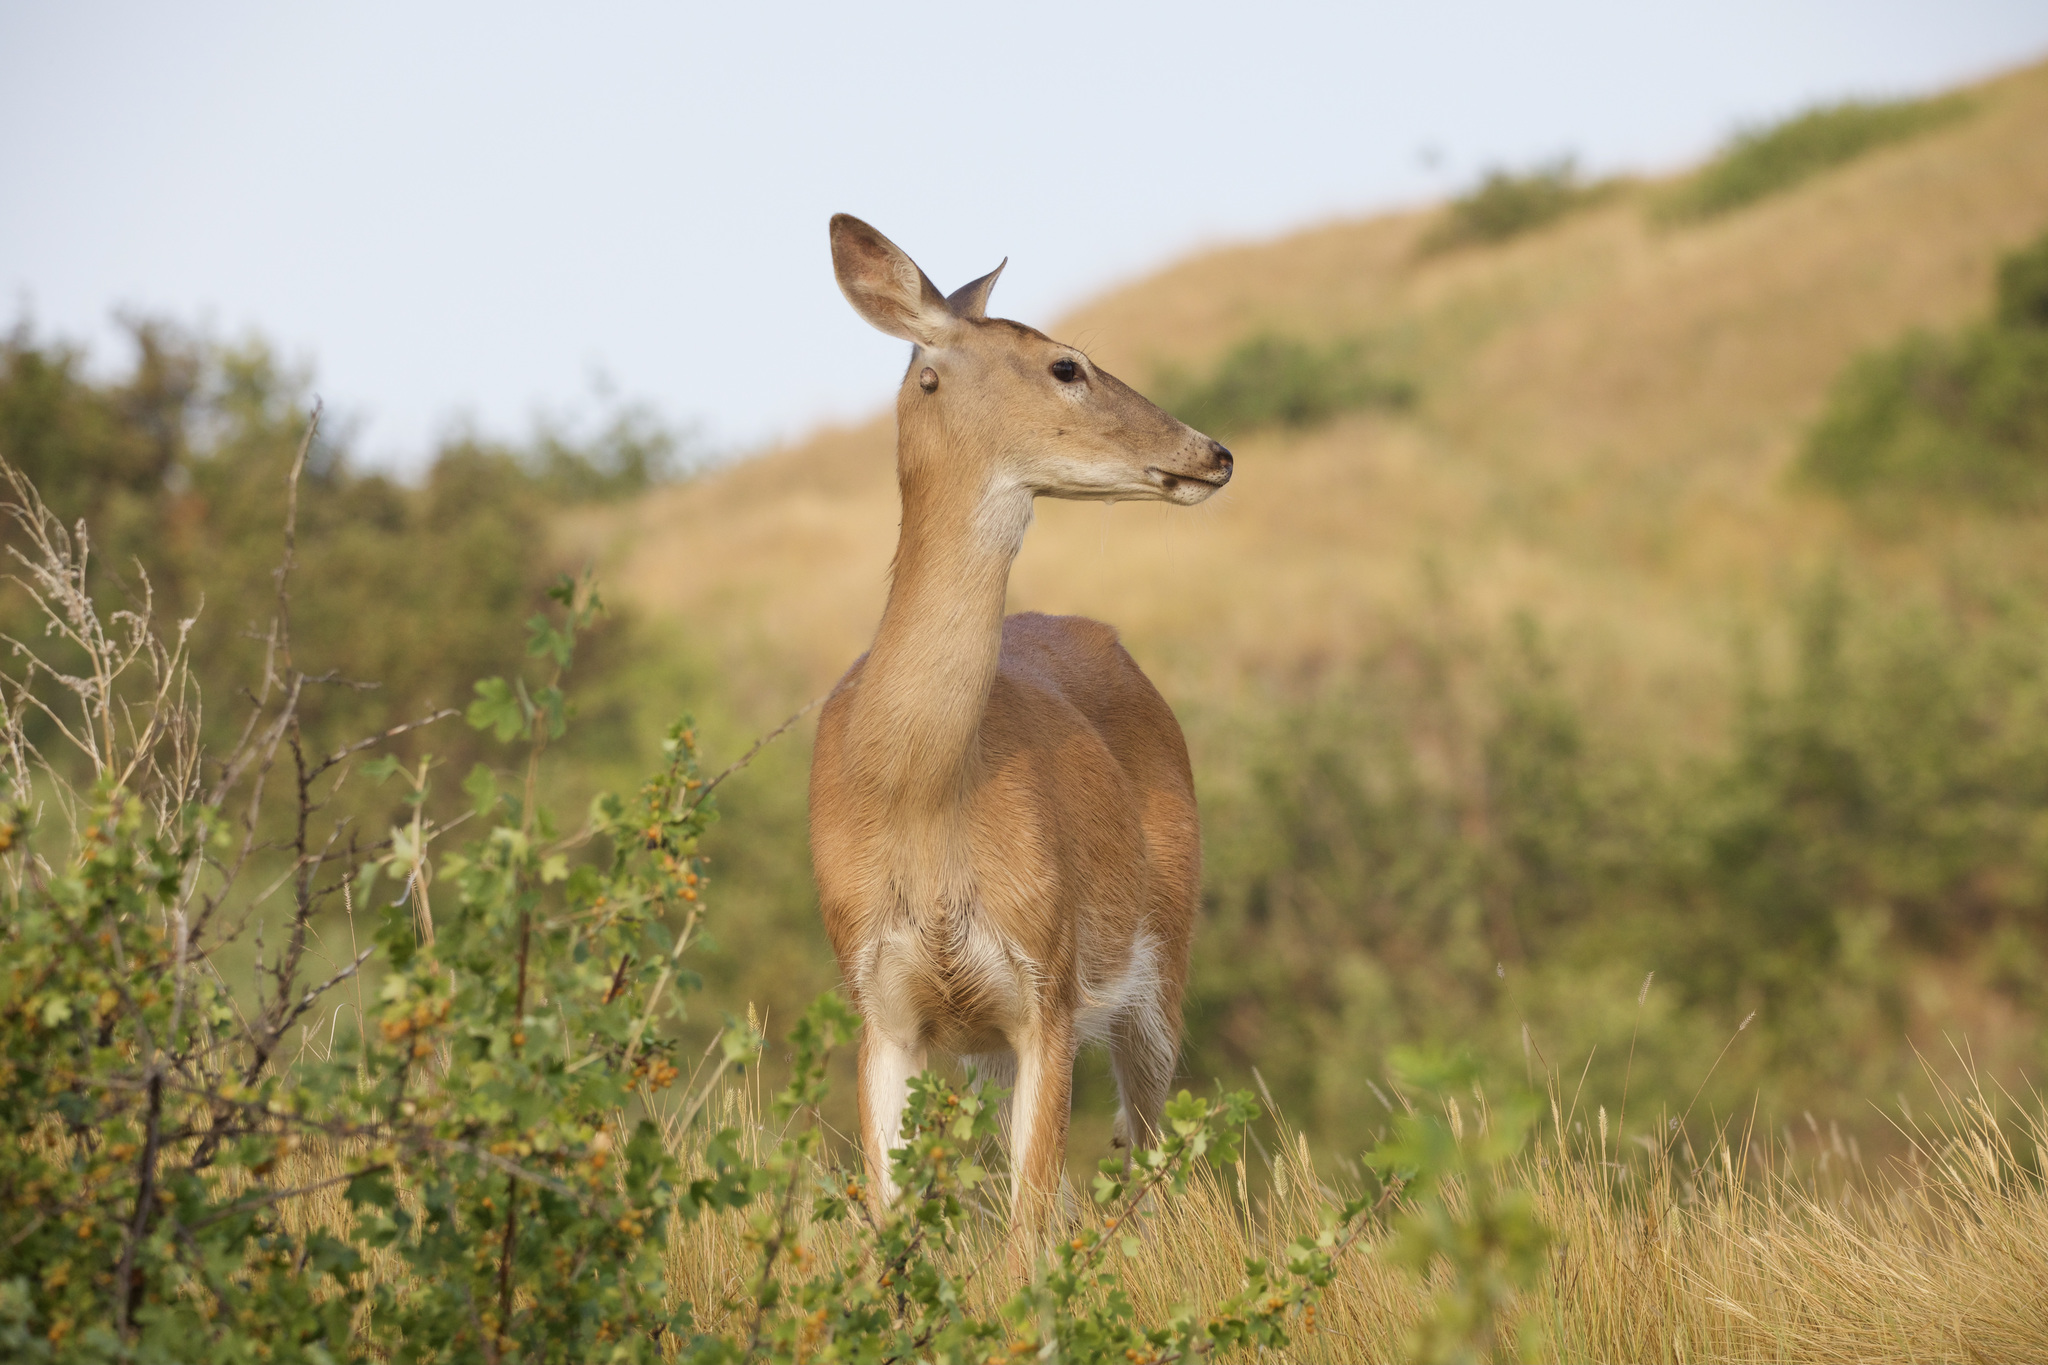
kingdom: Animalia
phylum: Chordata
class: Mammalia
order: Artiodactyla
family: Cervidae
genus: Odocoileus
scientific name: Odocoileus virginianus
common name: White-tailed deer
